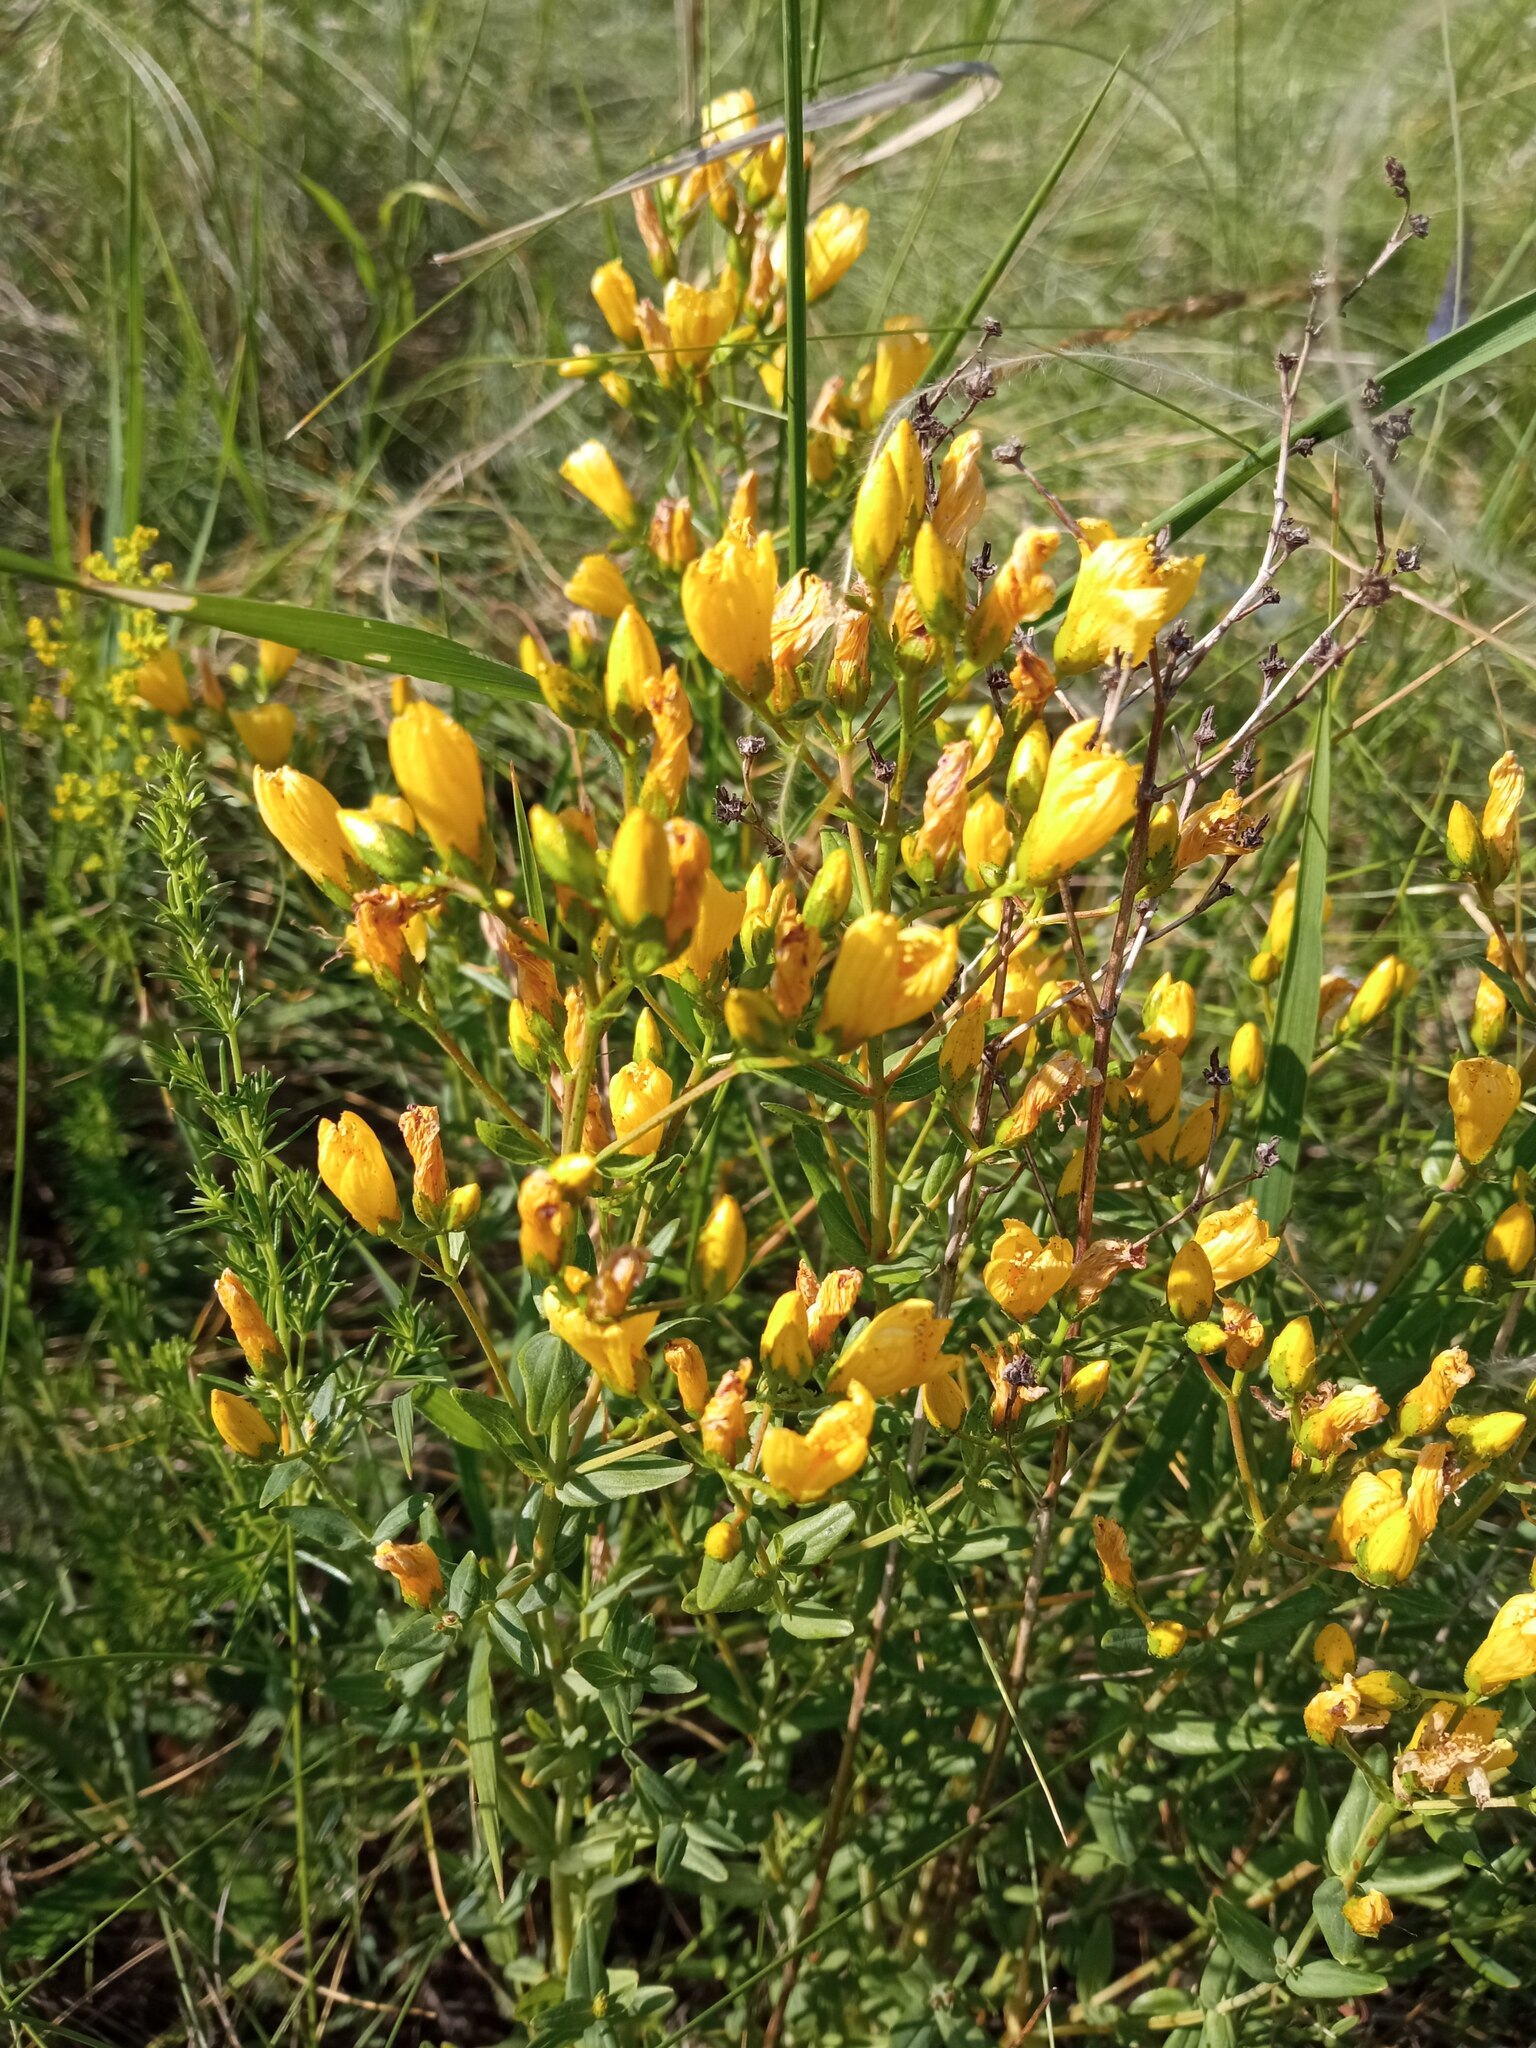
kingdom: Plantae
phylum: Tracheophyta
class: Magnoliopsida
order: Malpighiales
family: Hypericaceae
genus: Hypericum
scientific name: Hypericum elegans
